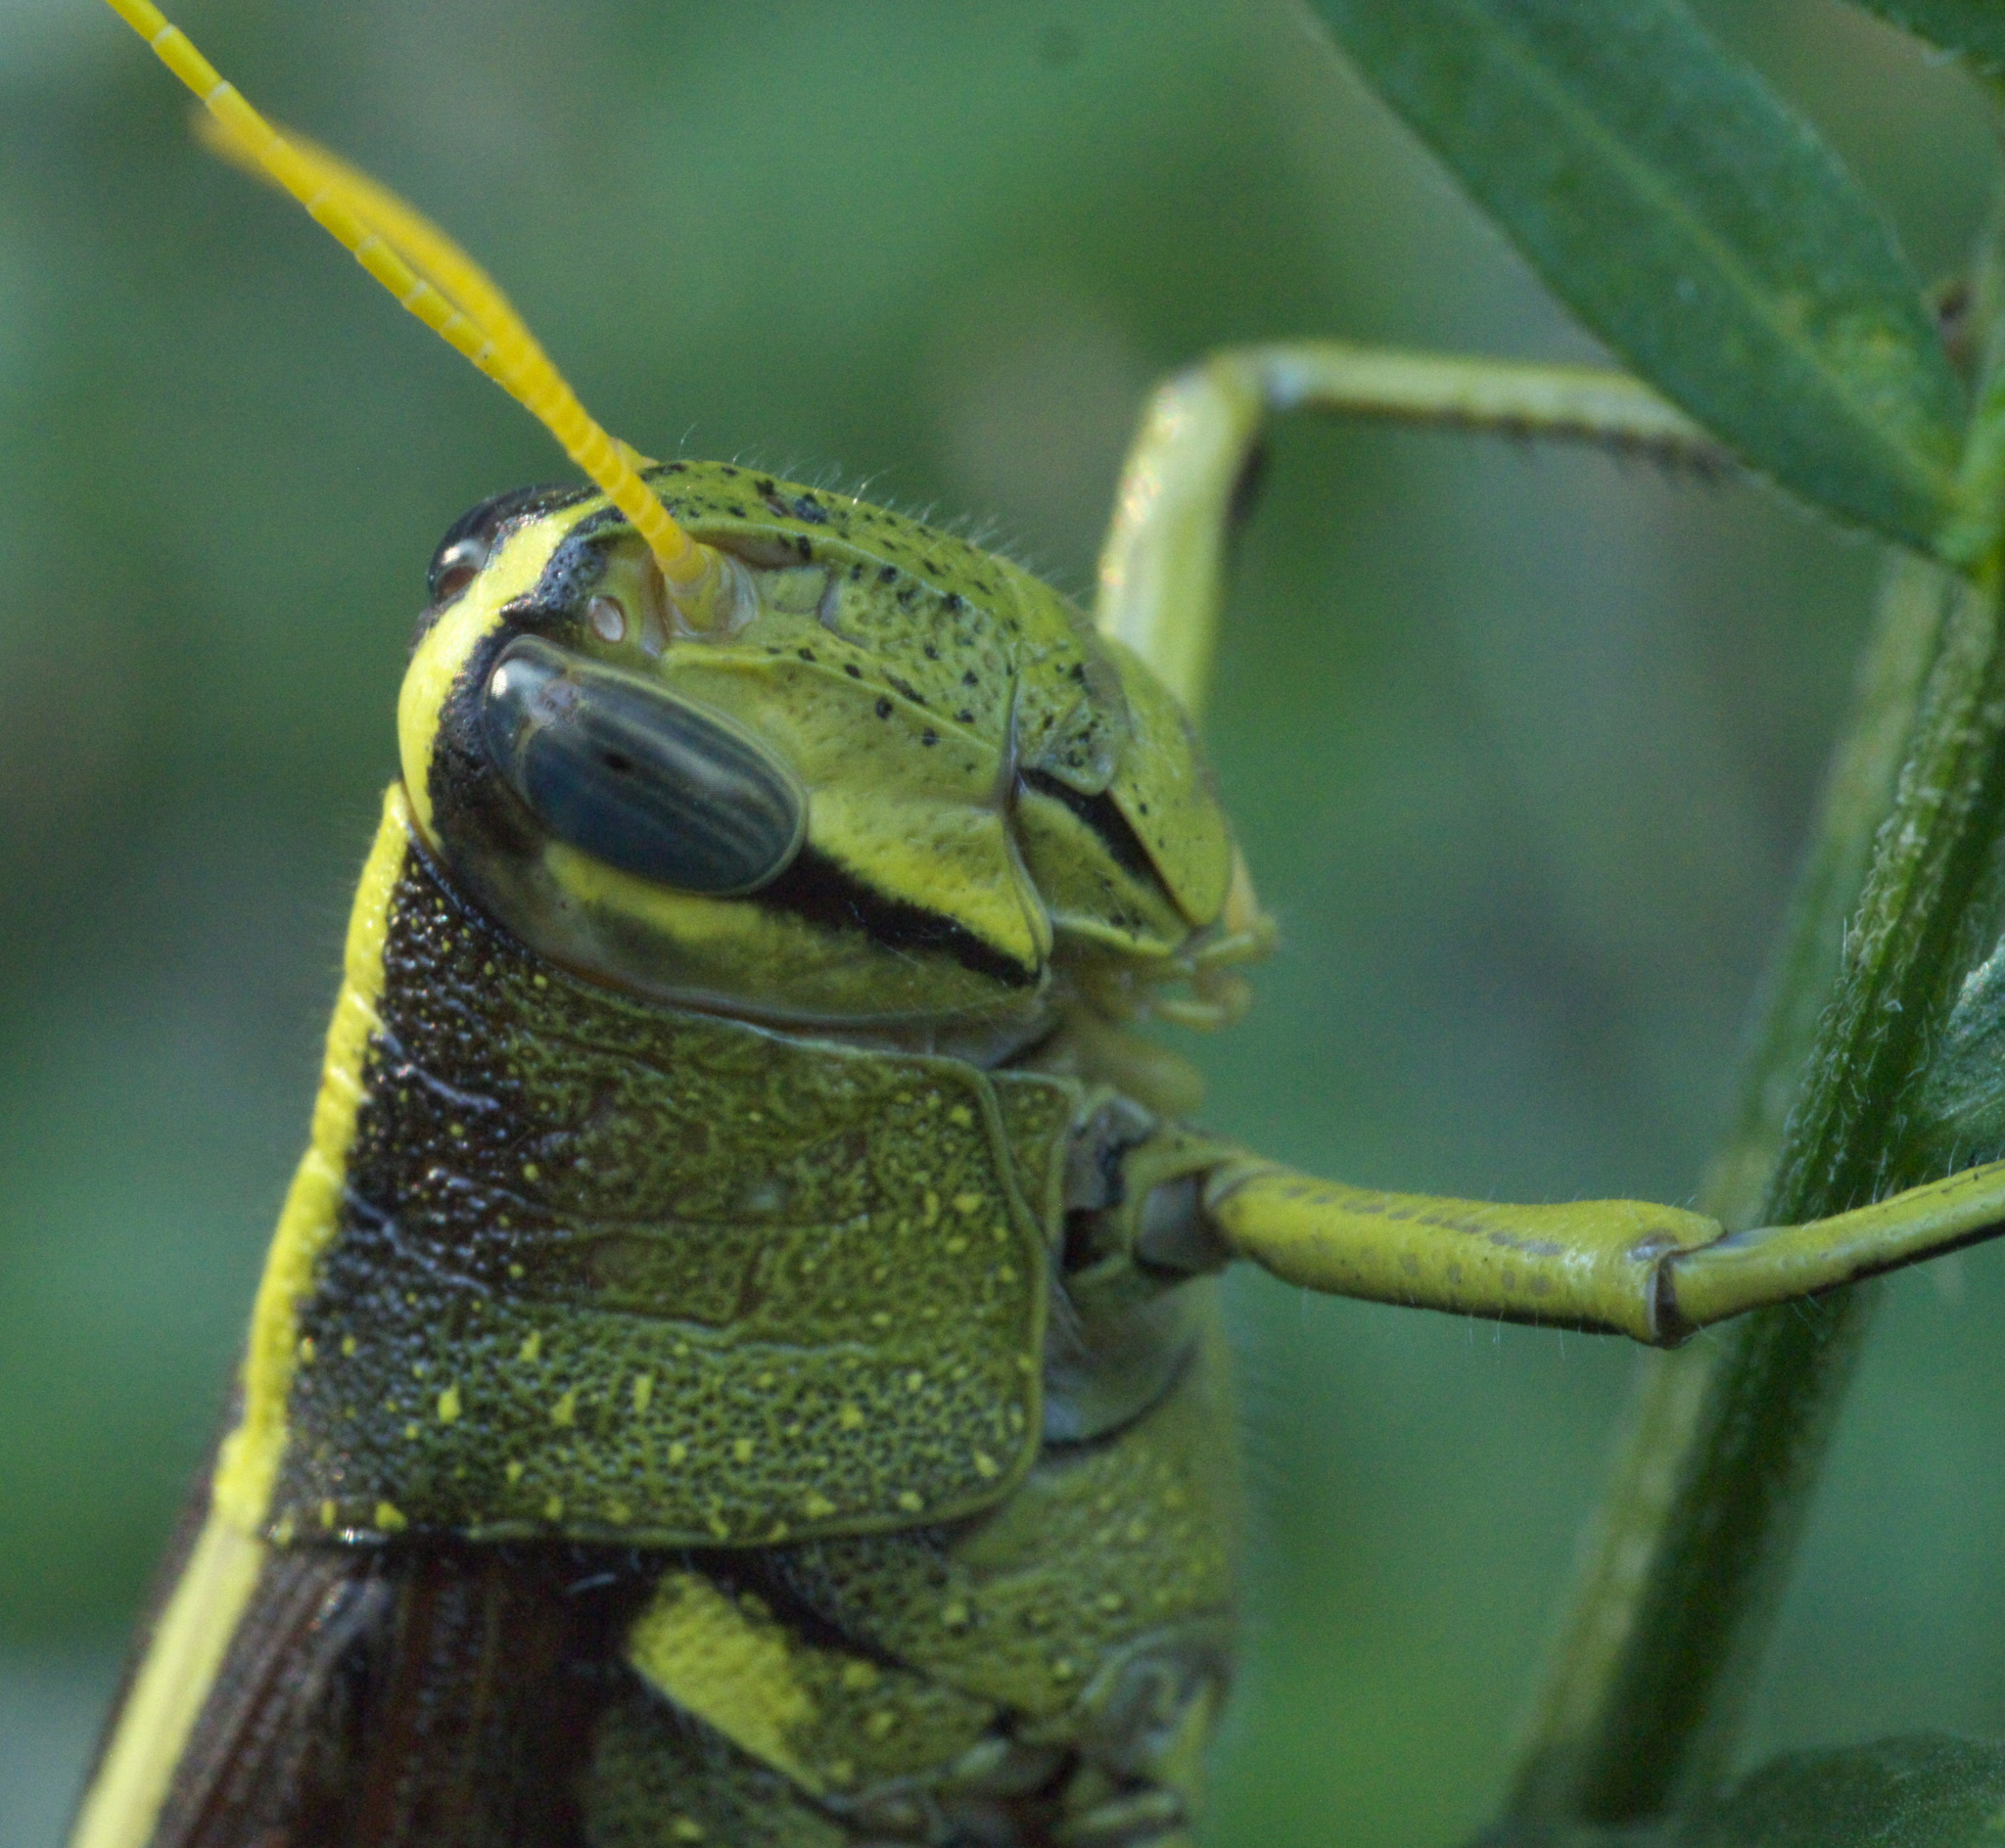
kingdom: Animalia
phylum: Arthropoda
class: Insecta
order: Orthoptera
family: Acrididae
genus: Schistocerca
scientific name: Schistocerca obscura
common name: Obscure bird grasshopper
